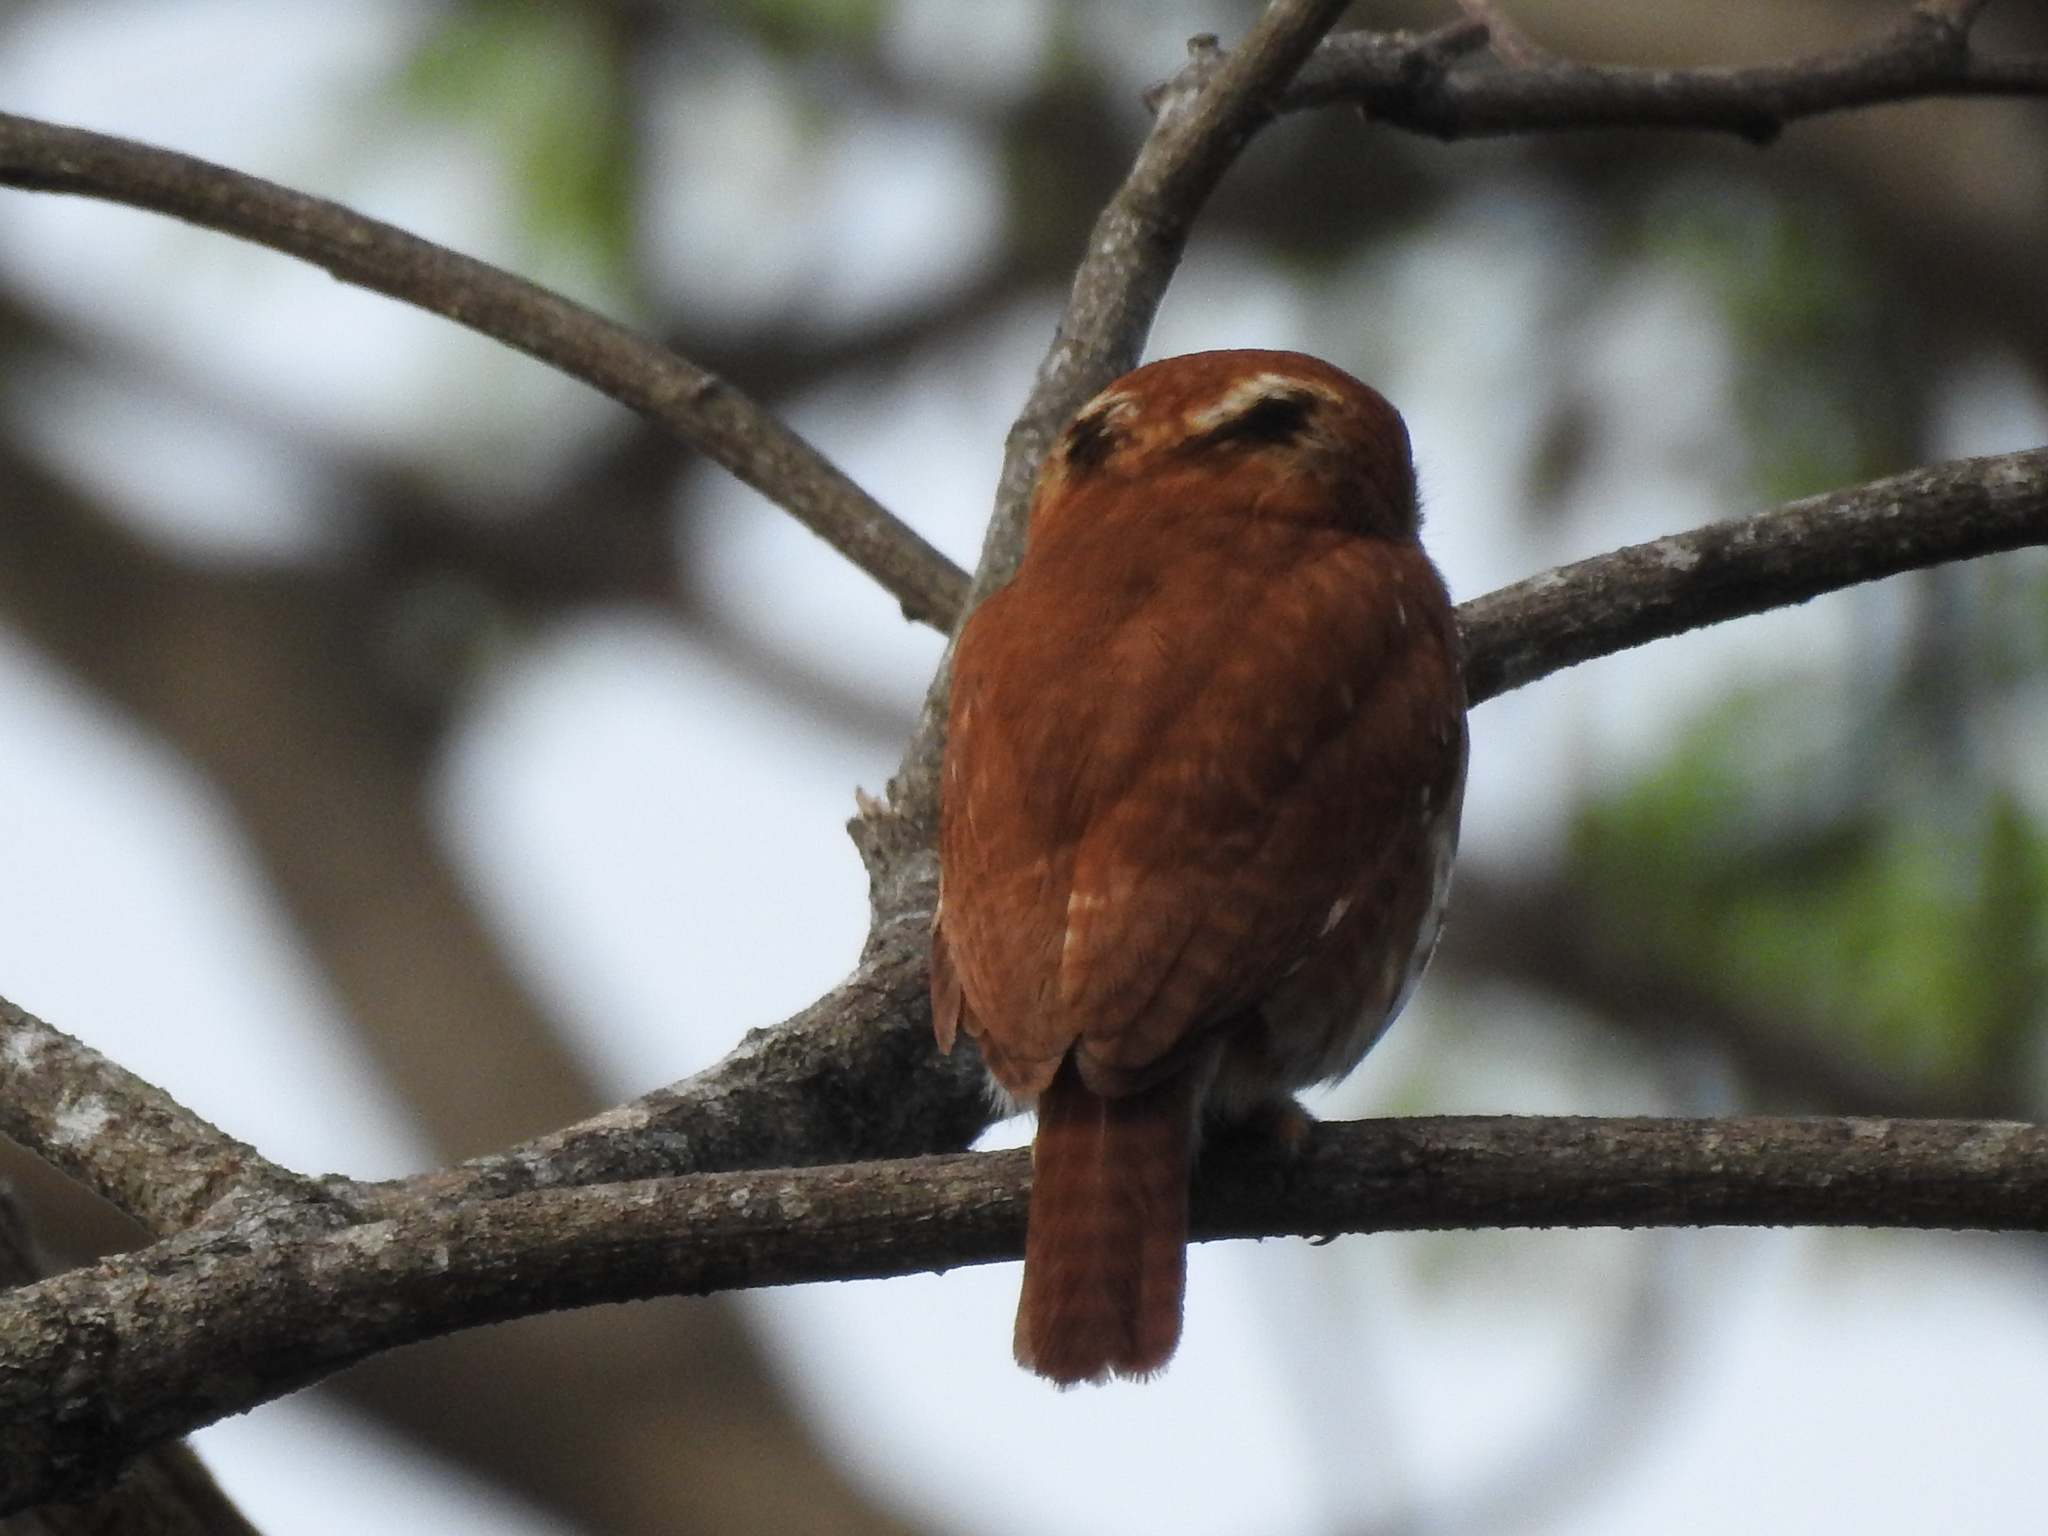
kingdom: Animalia
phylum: Chordata
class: Aves
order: Strigiformes
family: Strigidae
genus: Glaucidium
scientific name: Glaucidium brasilianum
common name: Ferruginous pygmy-owl
